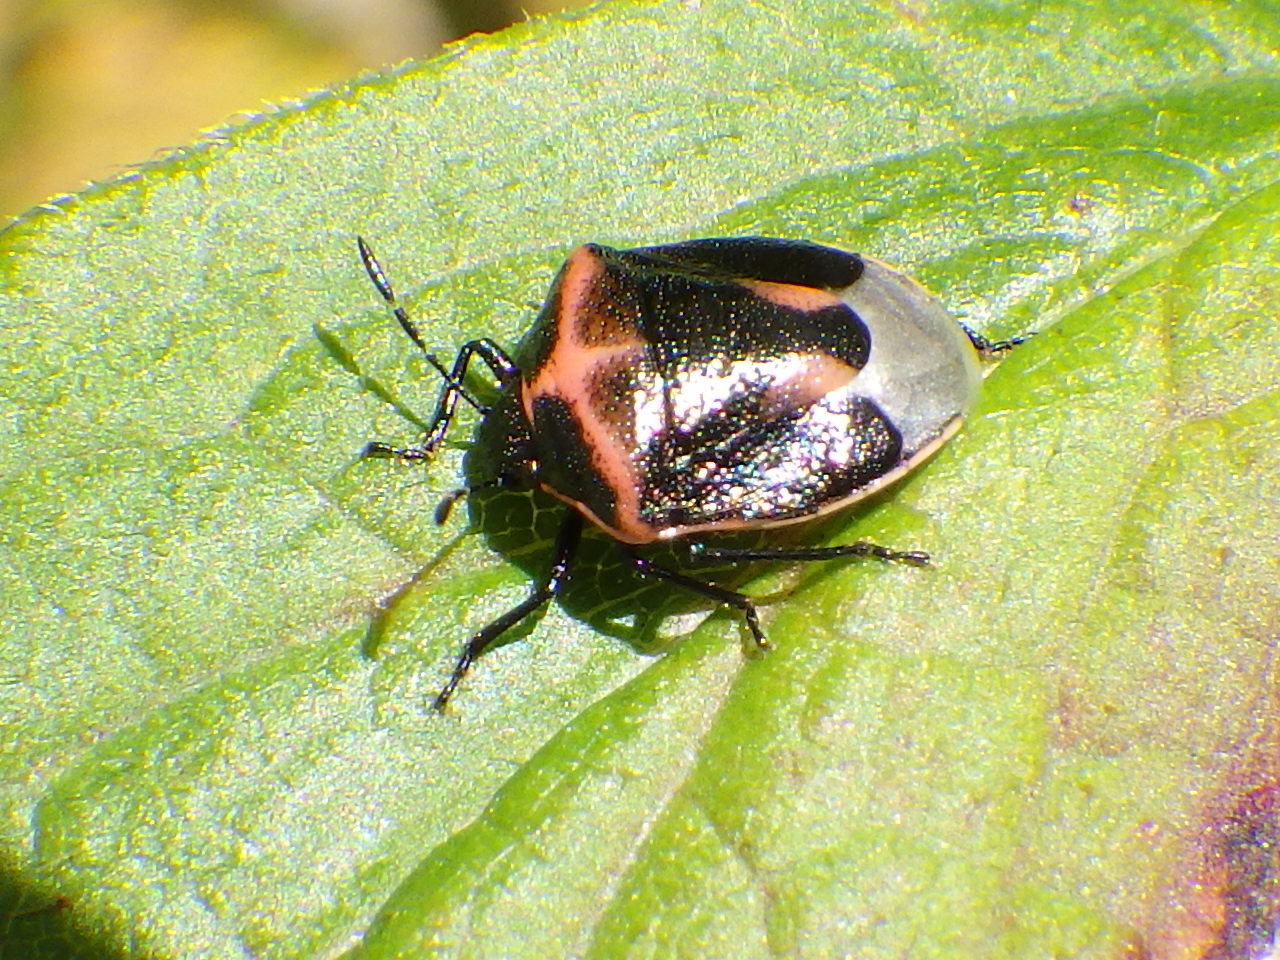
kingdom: Animalia
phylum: Arthropoda
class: Insecta
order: Hemiptera
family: Pentatomidae
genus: Cosmopepla
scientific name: Cosmopepla lintneriana
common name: Twice-stabbed stink bug
